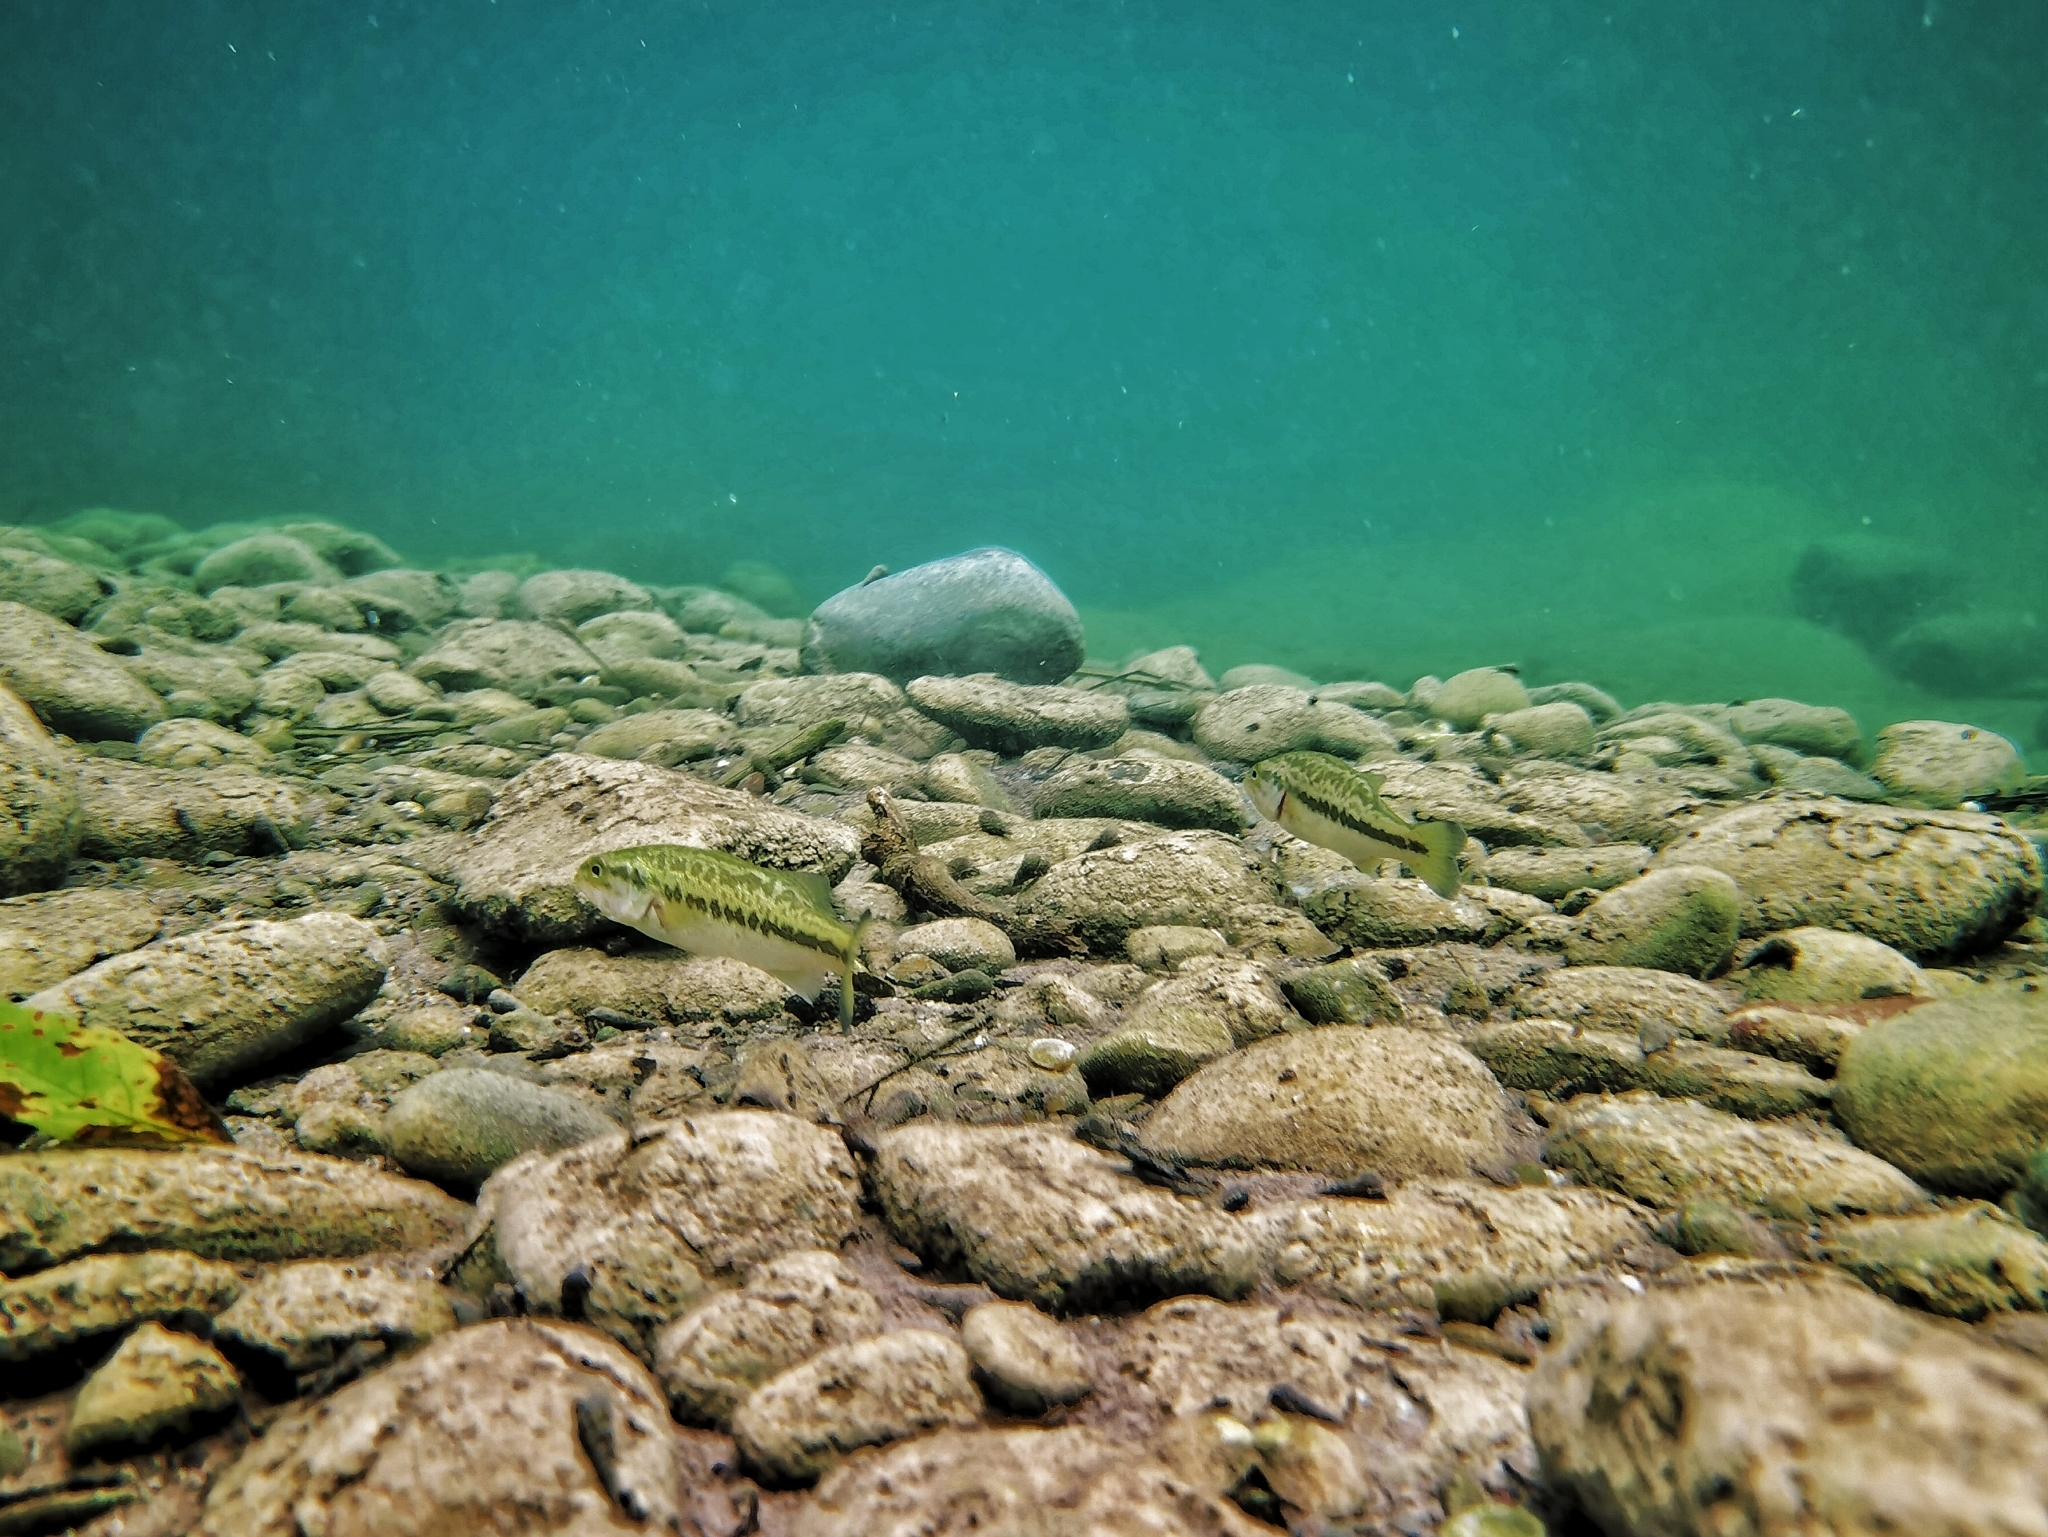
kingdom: Animalia
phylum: Chordata
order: Perciformes
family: Centrarchidae
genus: Micropterus
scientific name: Micropterus
